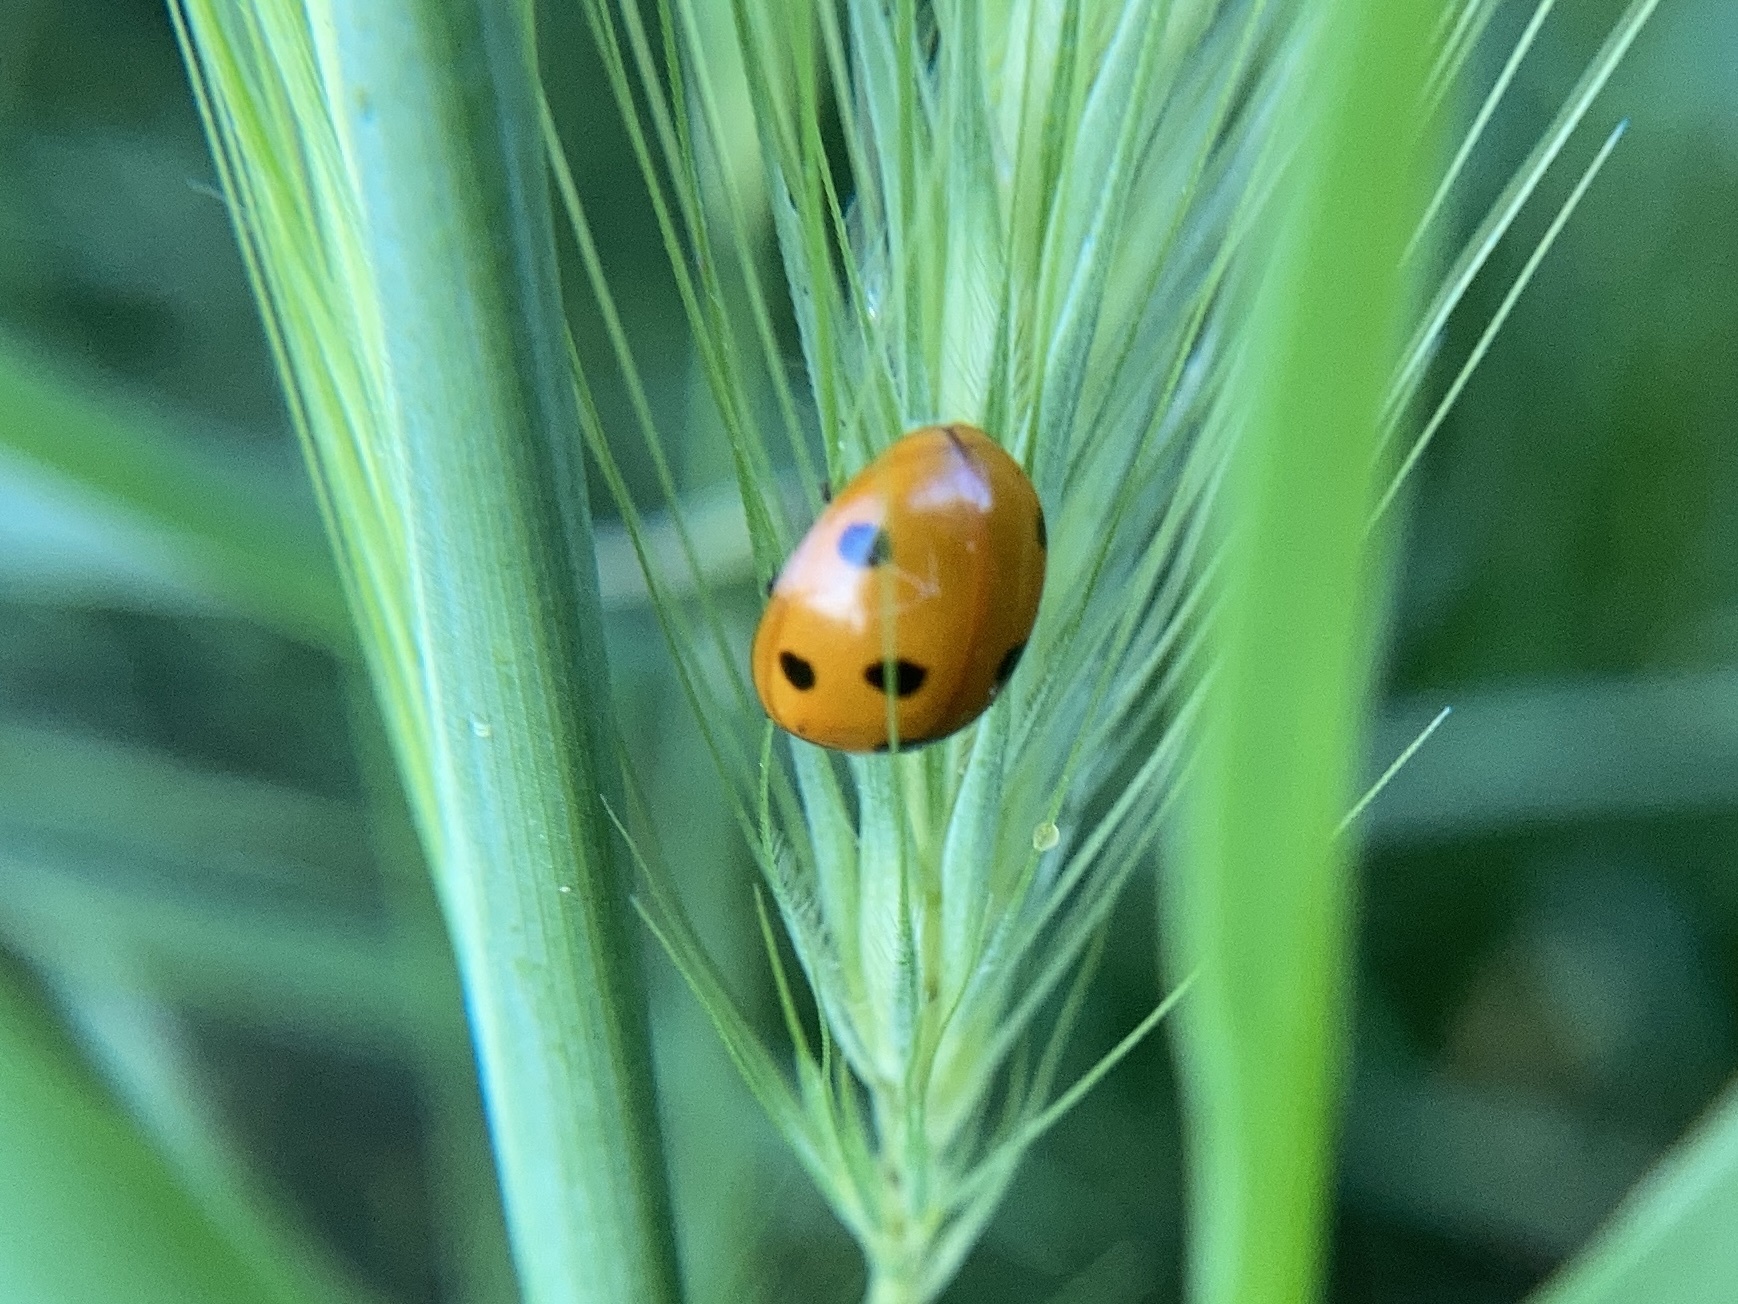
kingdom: Animalia
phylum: Arthropoda
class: Insecta
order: Coleoptera
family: Coccinellidae
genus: Coccinella
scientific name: Coccinella septempunctata
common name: Sevenspotted lady beetle
